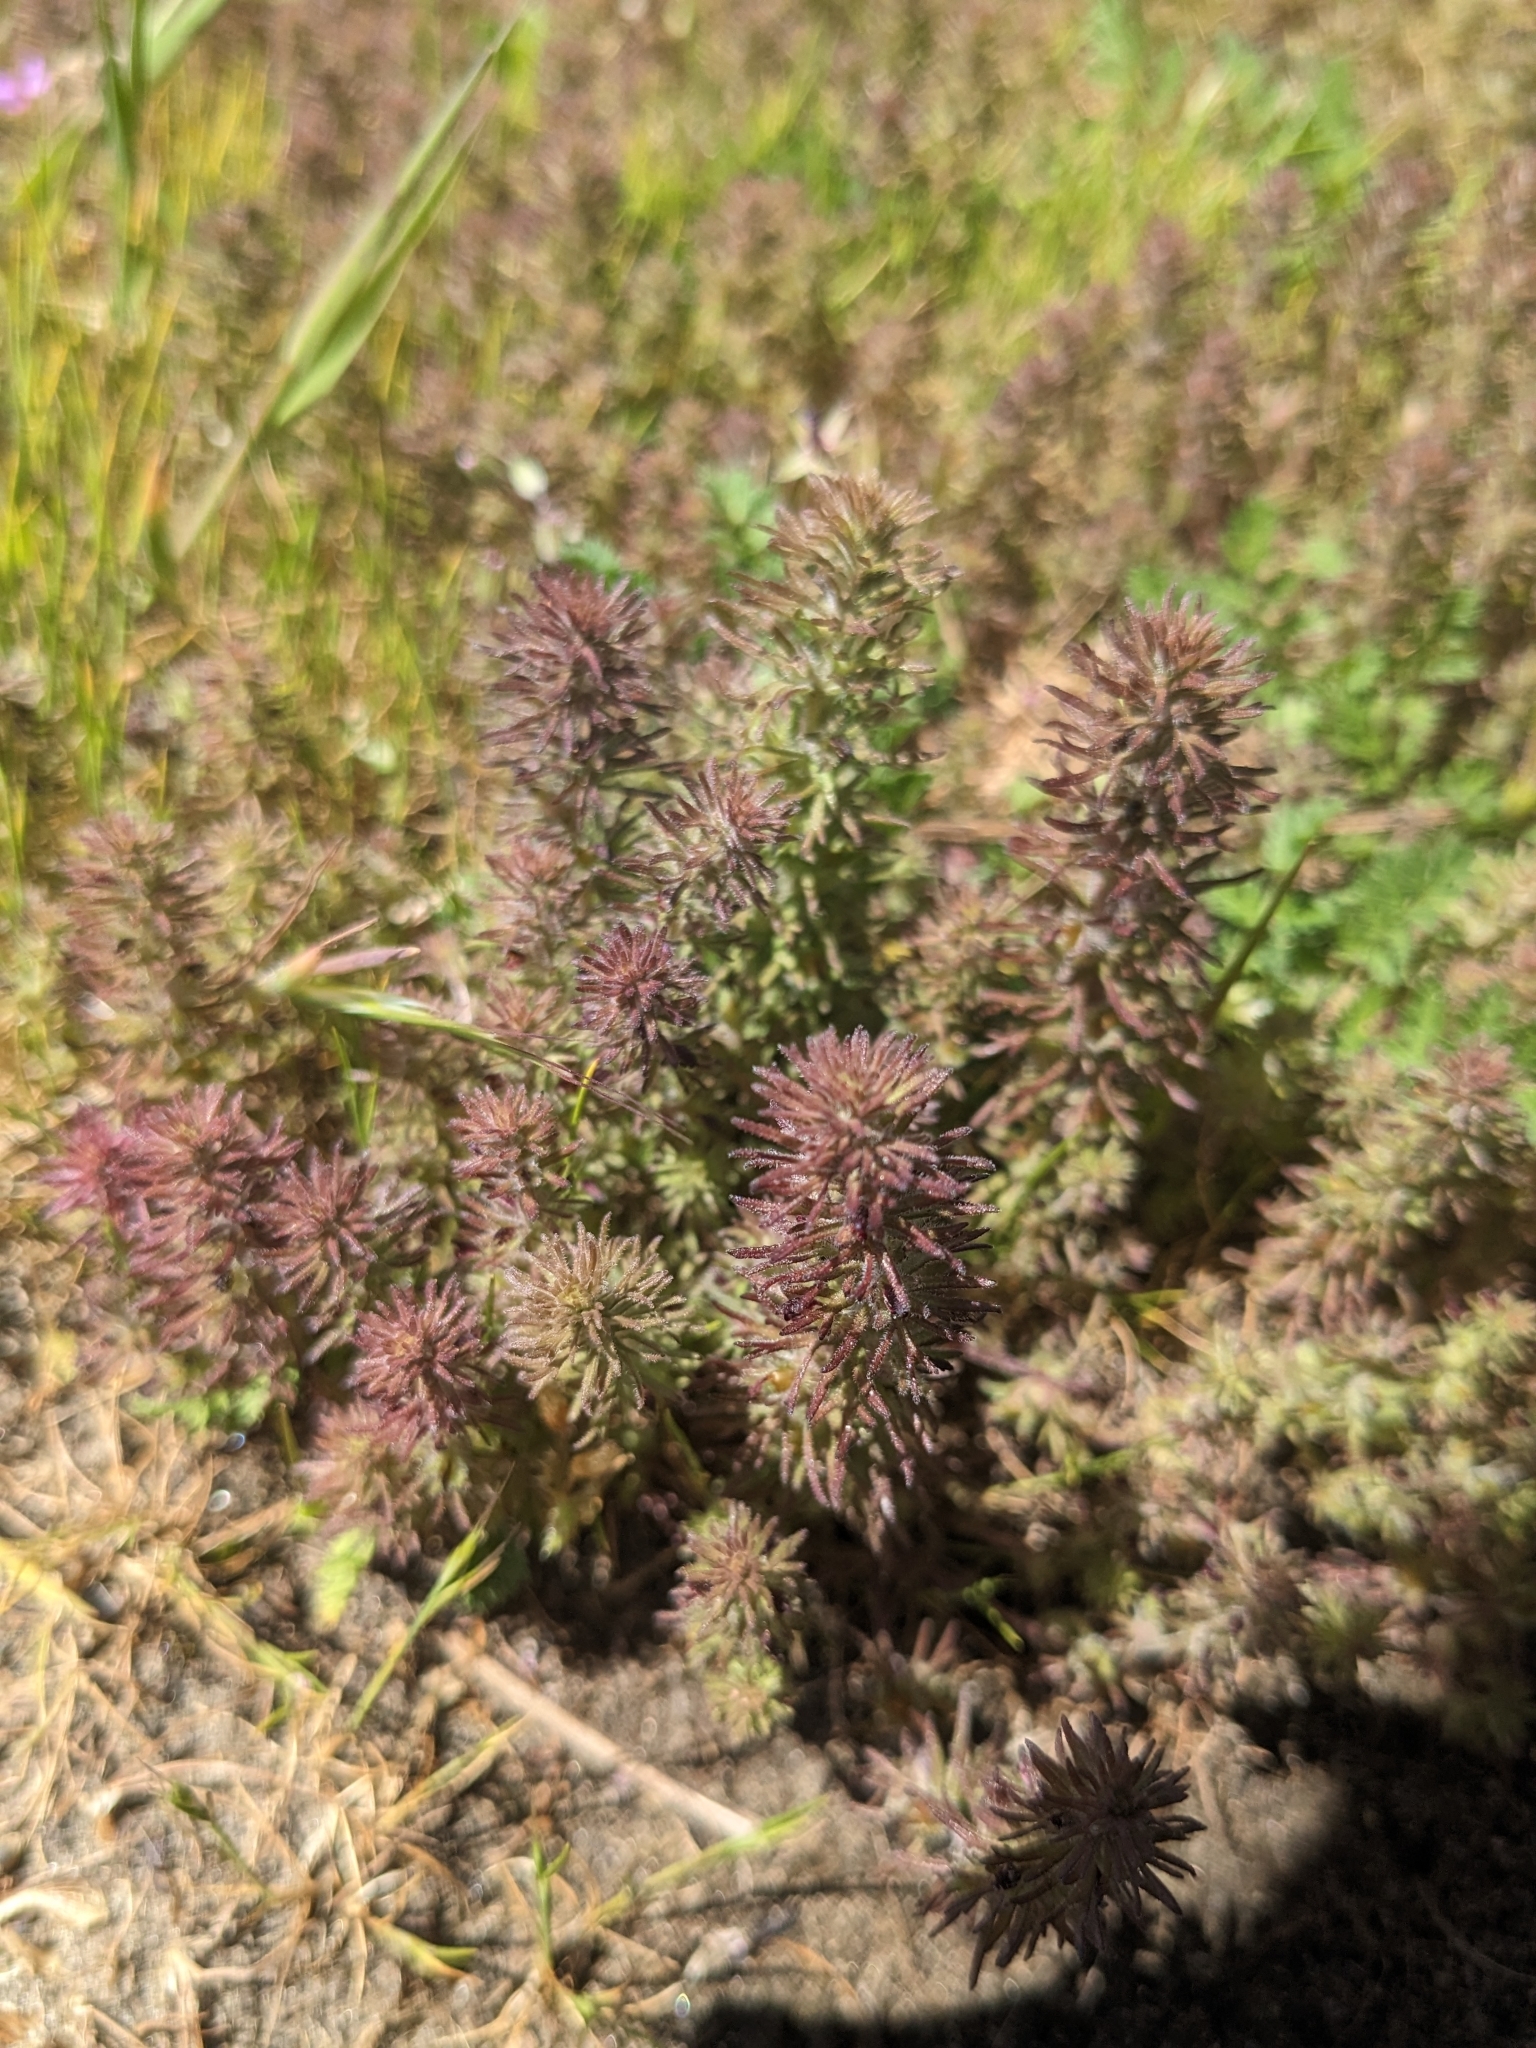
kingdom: Plantae
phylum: Tracheophyta
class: Magnoliopsida
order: Lamiales
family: Orobanchaceae
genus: Triphysaria
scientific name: Triphysaria pusilla
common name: Dwarf false owl-clover
